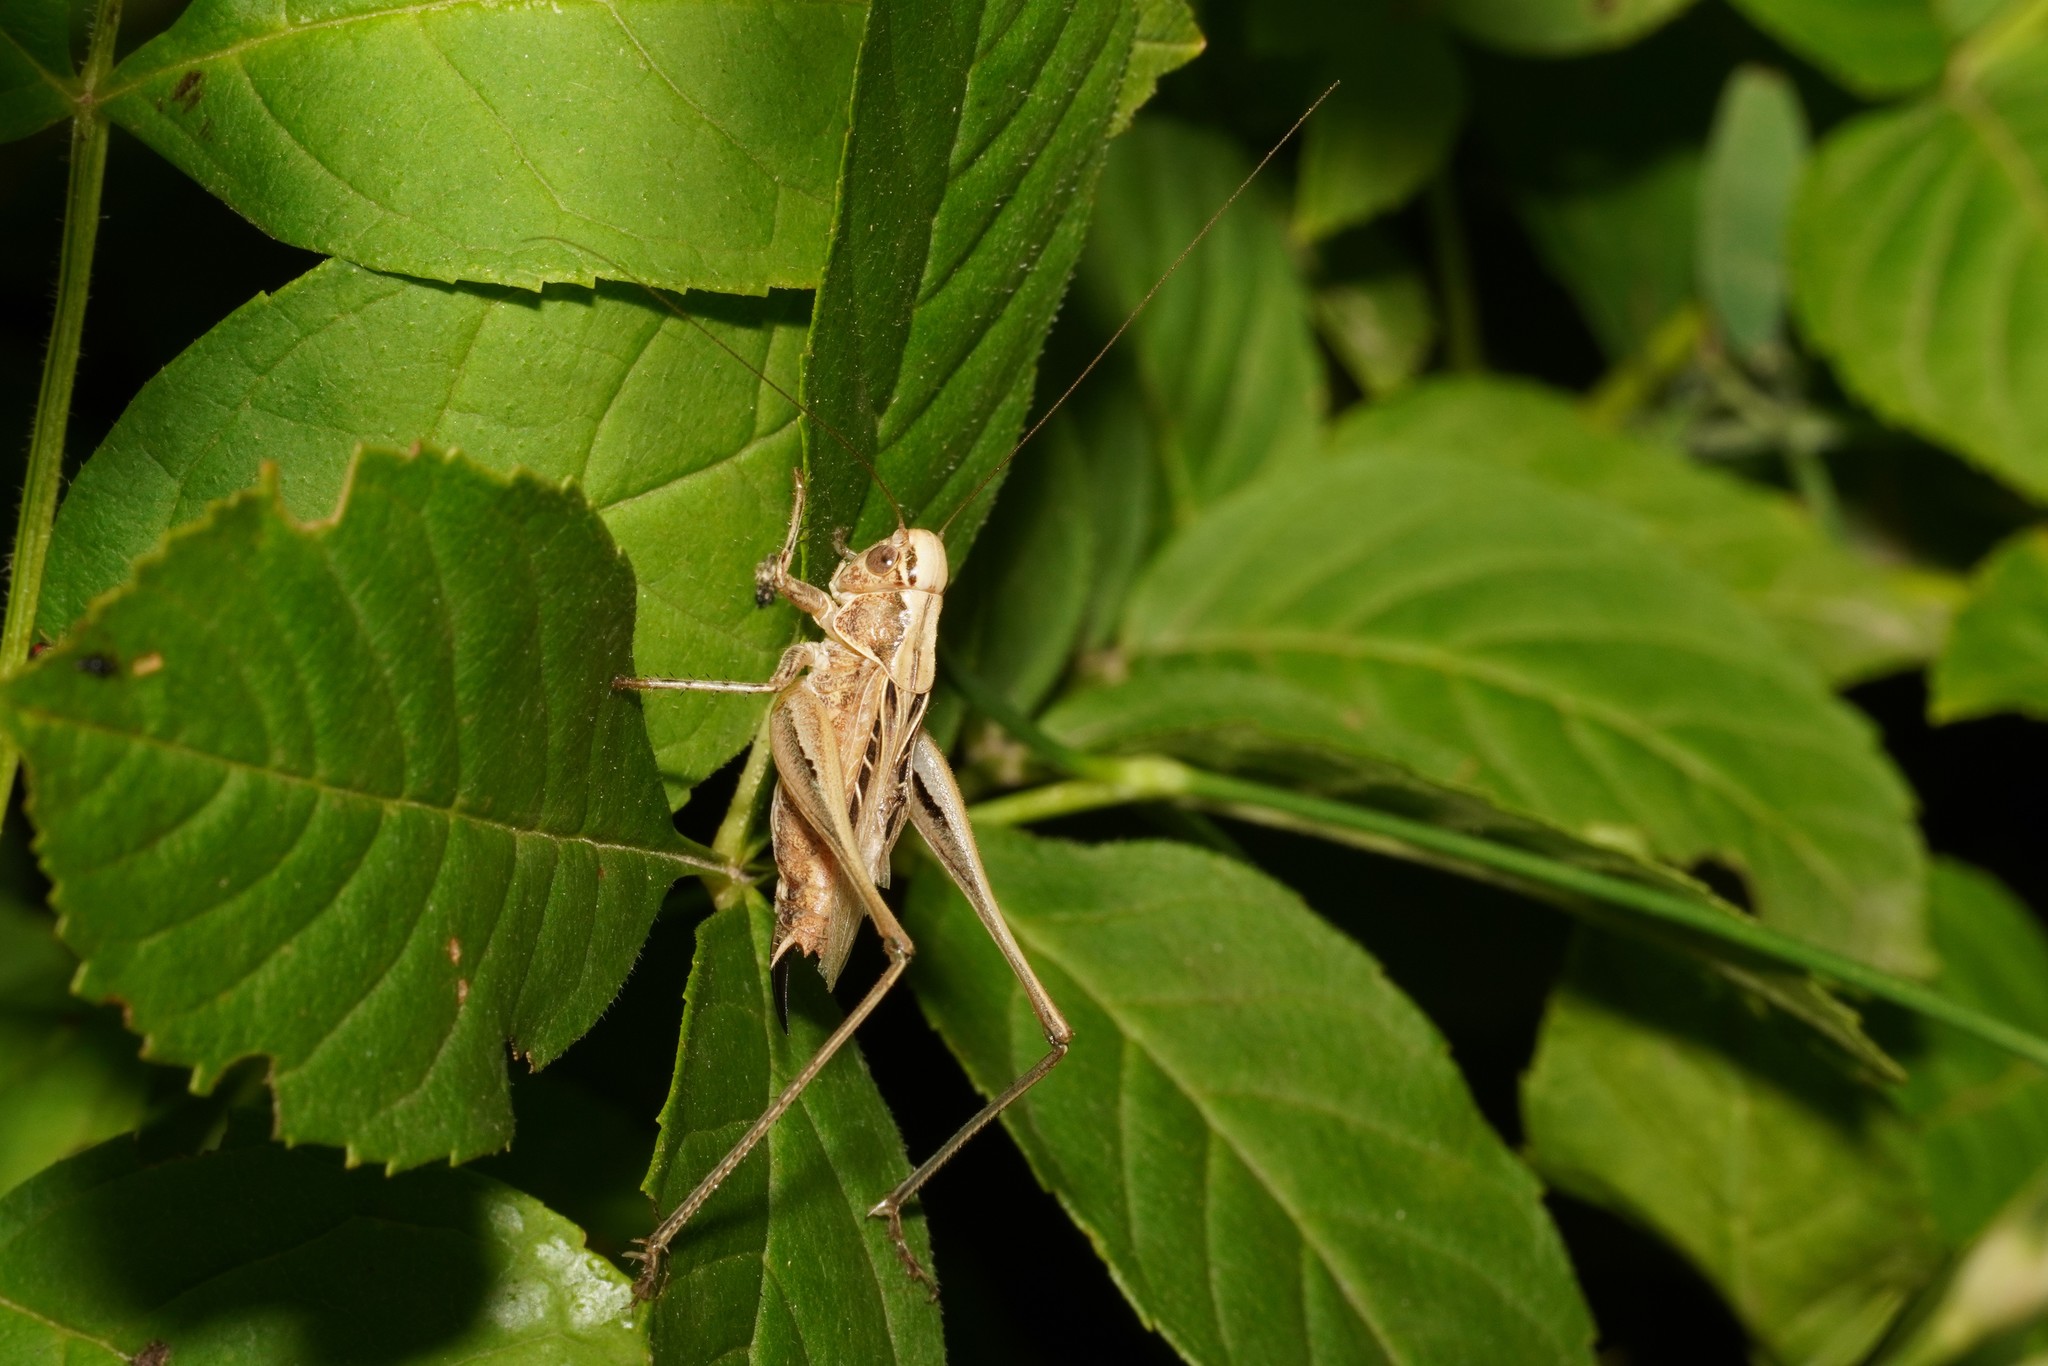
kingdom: Animalia
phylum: Arthropoda
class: Insecta
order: Orthoptera
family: Tettigoniidae
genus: Tessellana
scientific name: Tessellana tessellata
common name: Grasshopper
